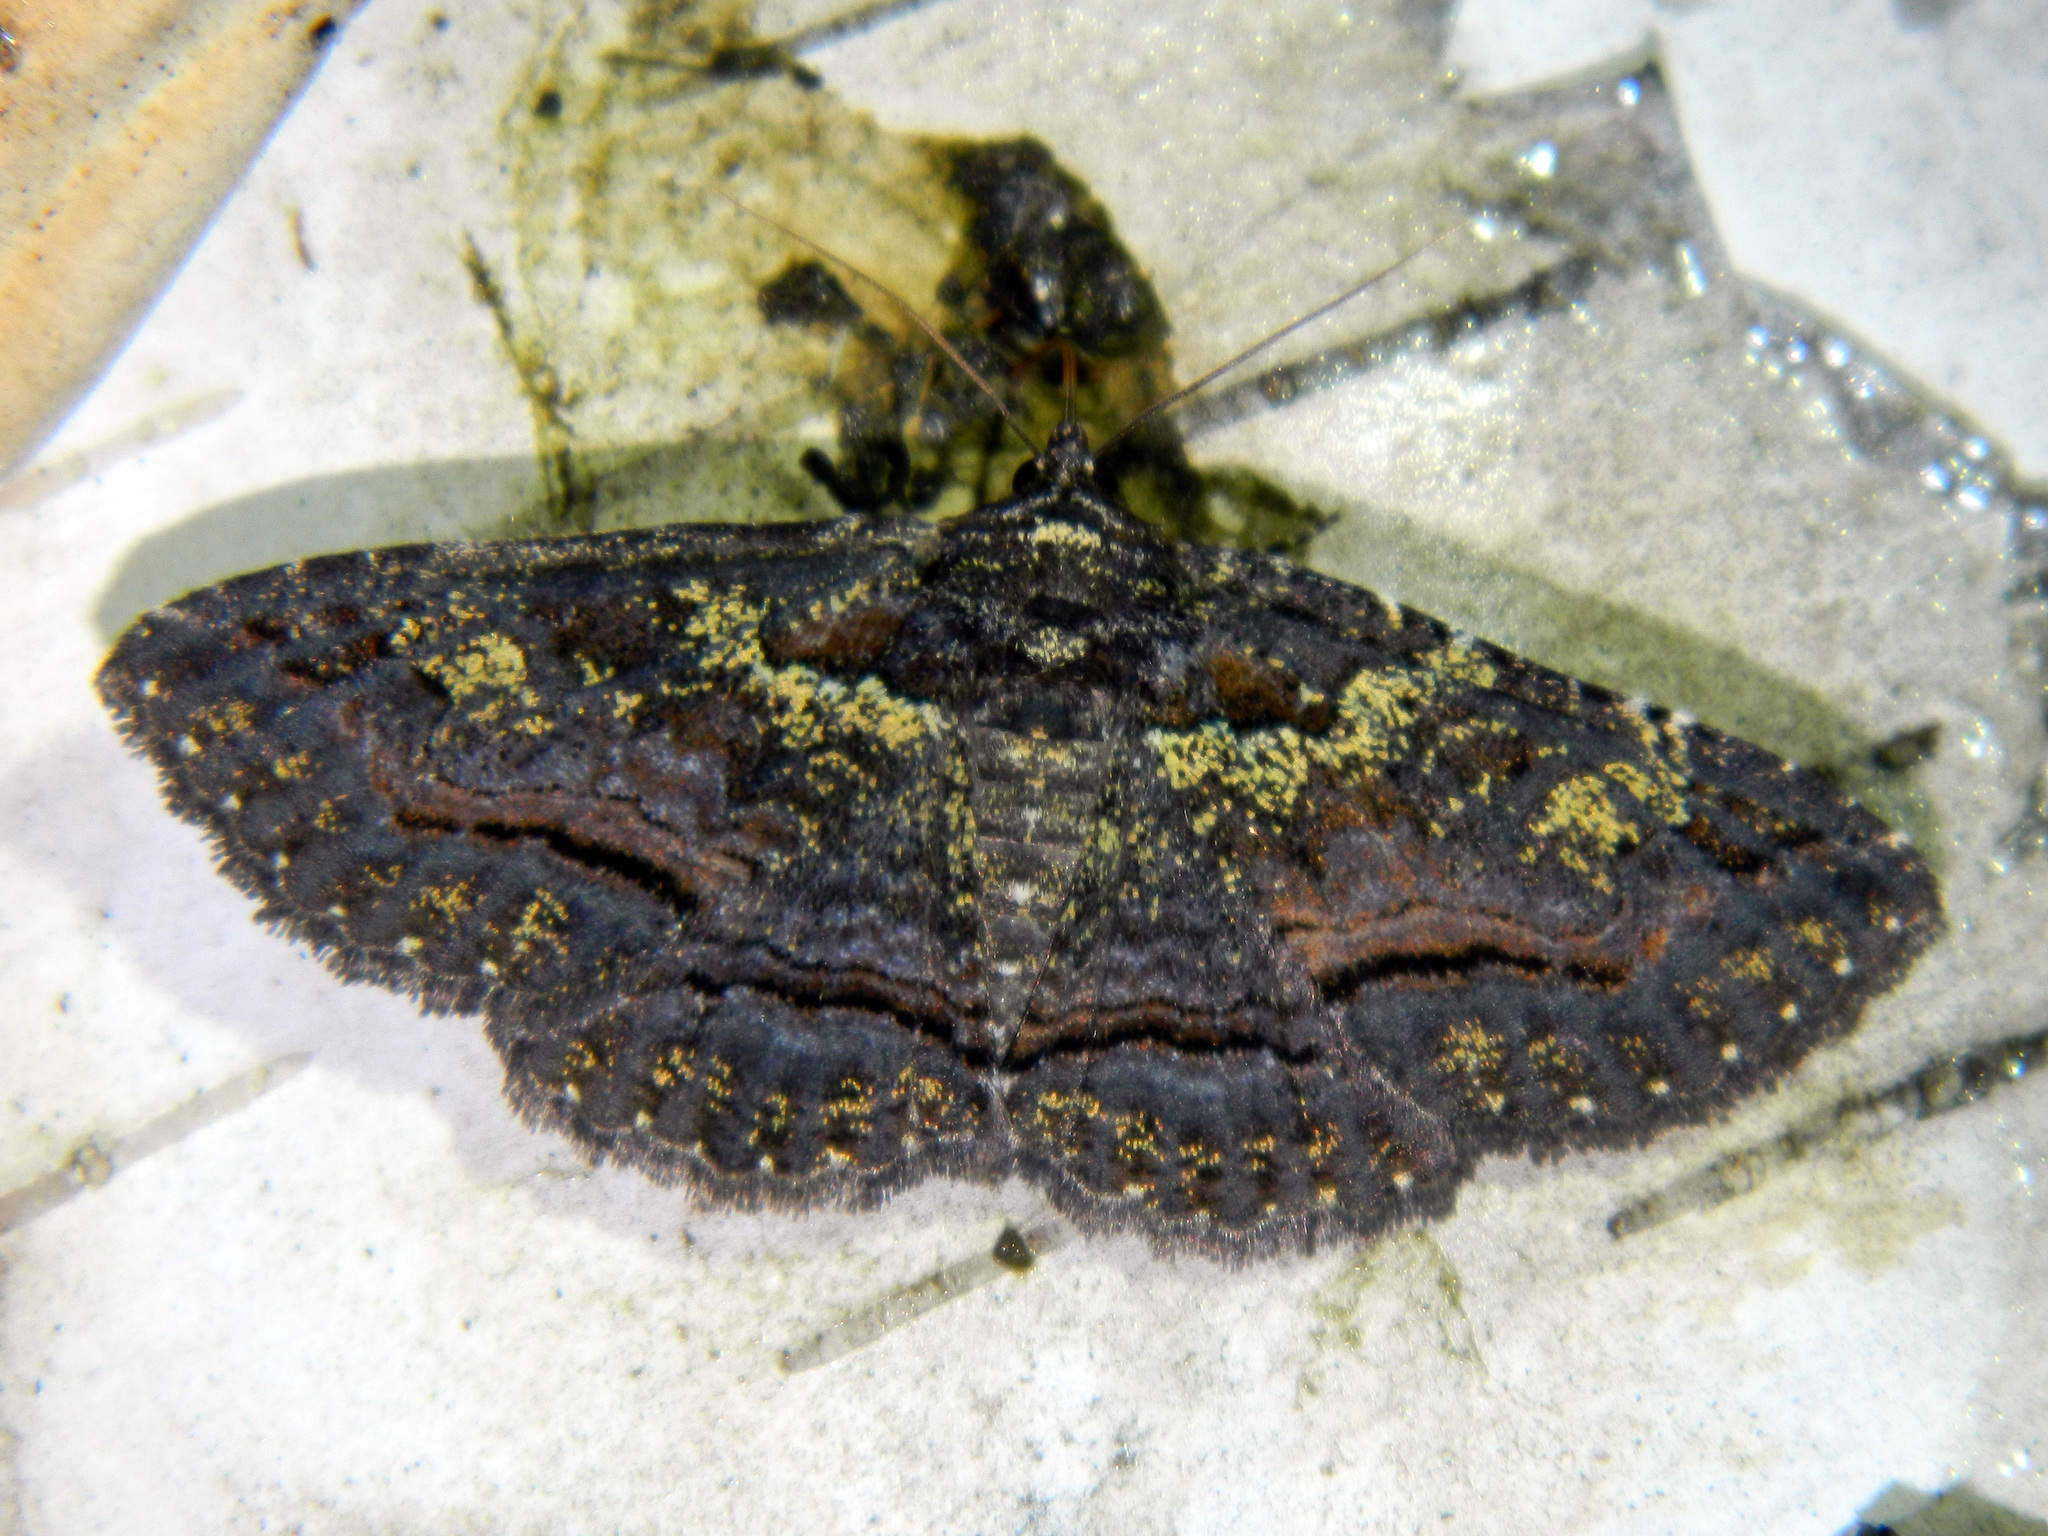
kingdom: Animalia
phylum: Arthropoda
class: Insecta
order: Lepidoptera
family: Erebidae
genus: Zale
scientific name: Zale aeruginosa
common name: Green-dusted zale moth
